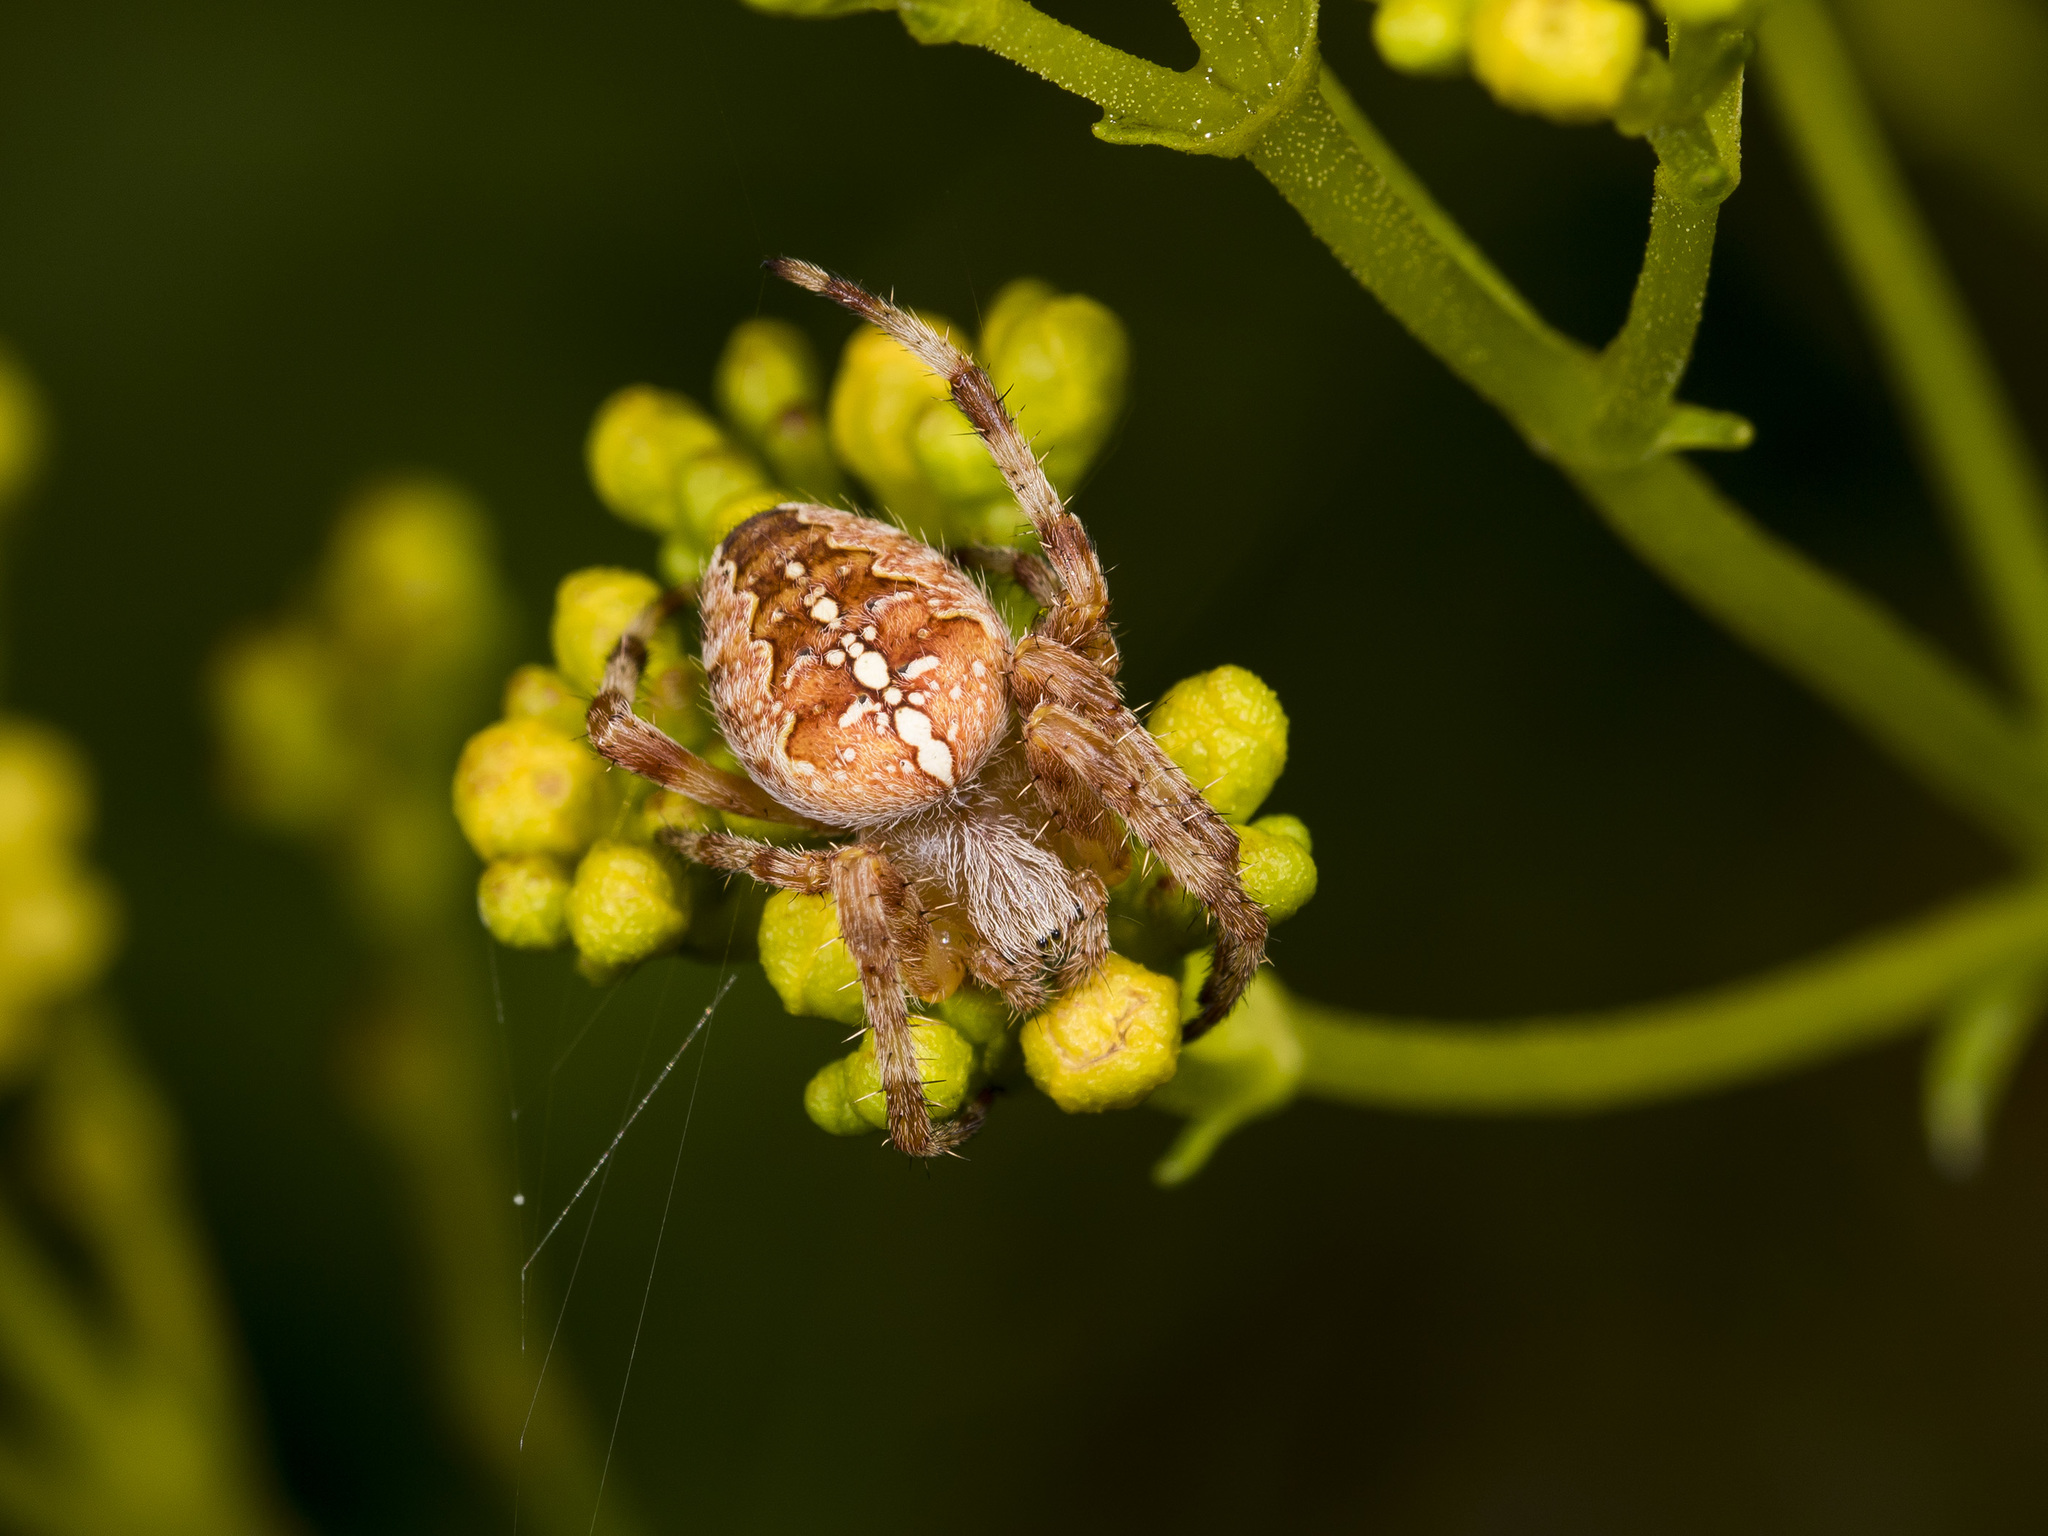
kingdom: Animalia
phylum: Arthropoda
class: Arachnida
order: Araneae
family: Araneidae
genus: Araneus
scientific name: Araneus diadematus
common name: Cross orbweaver
